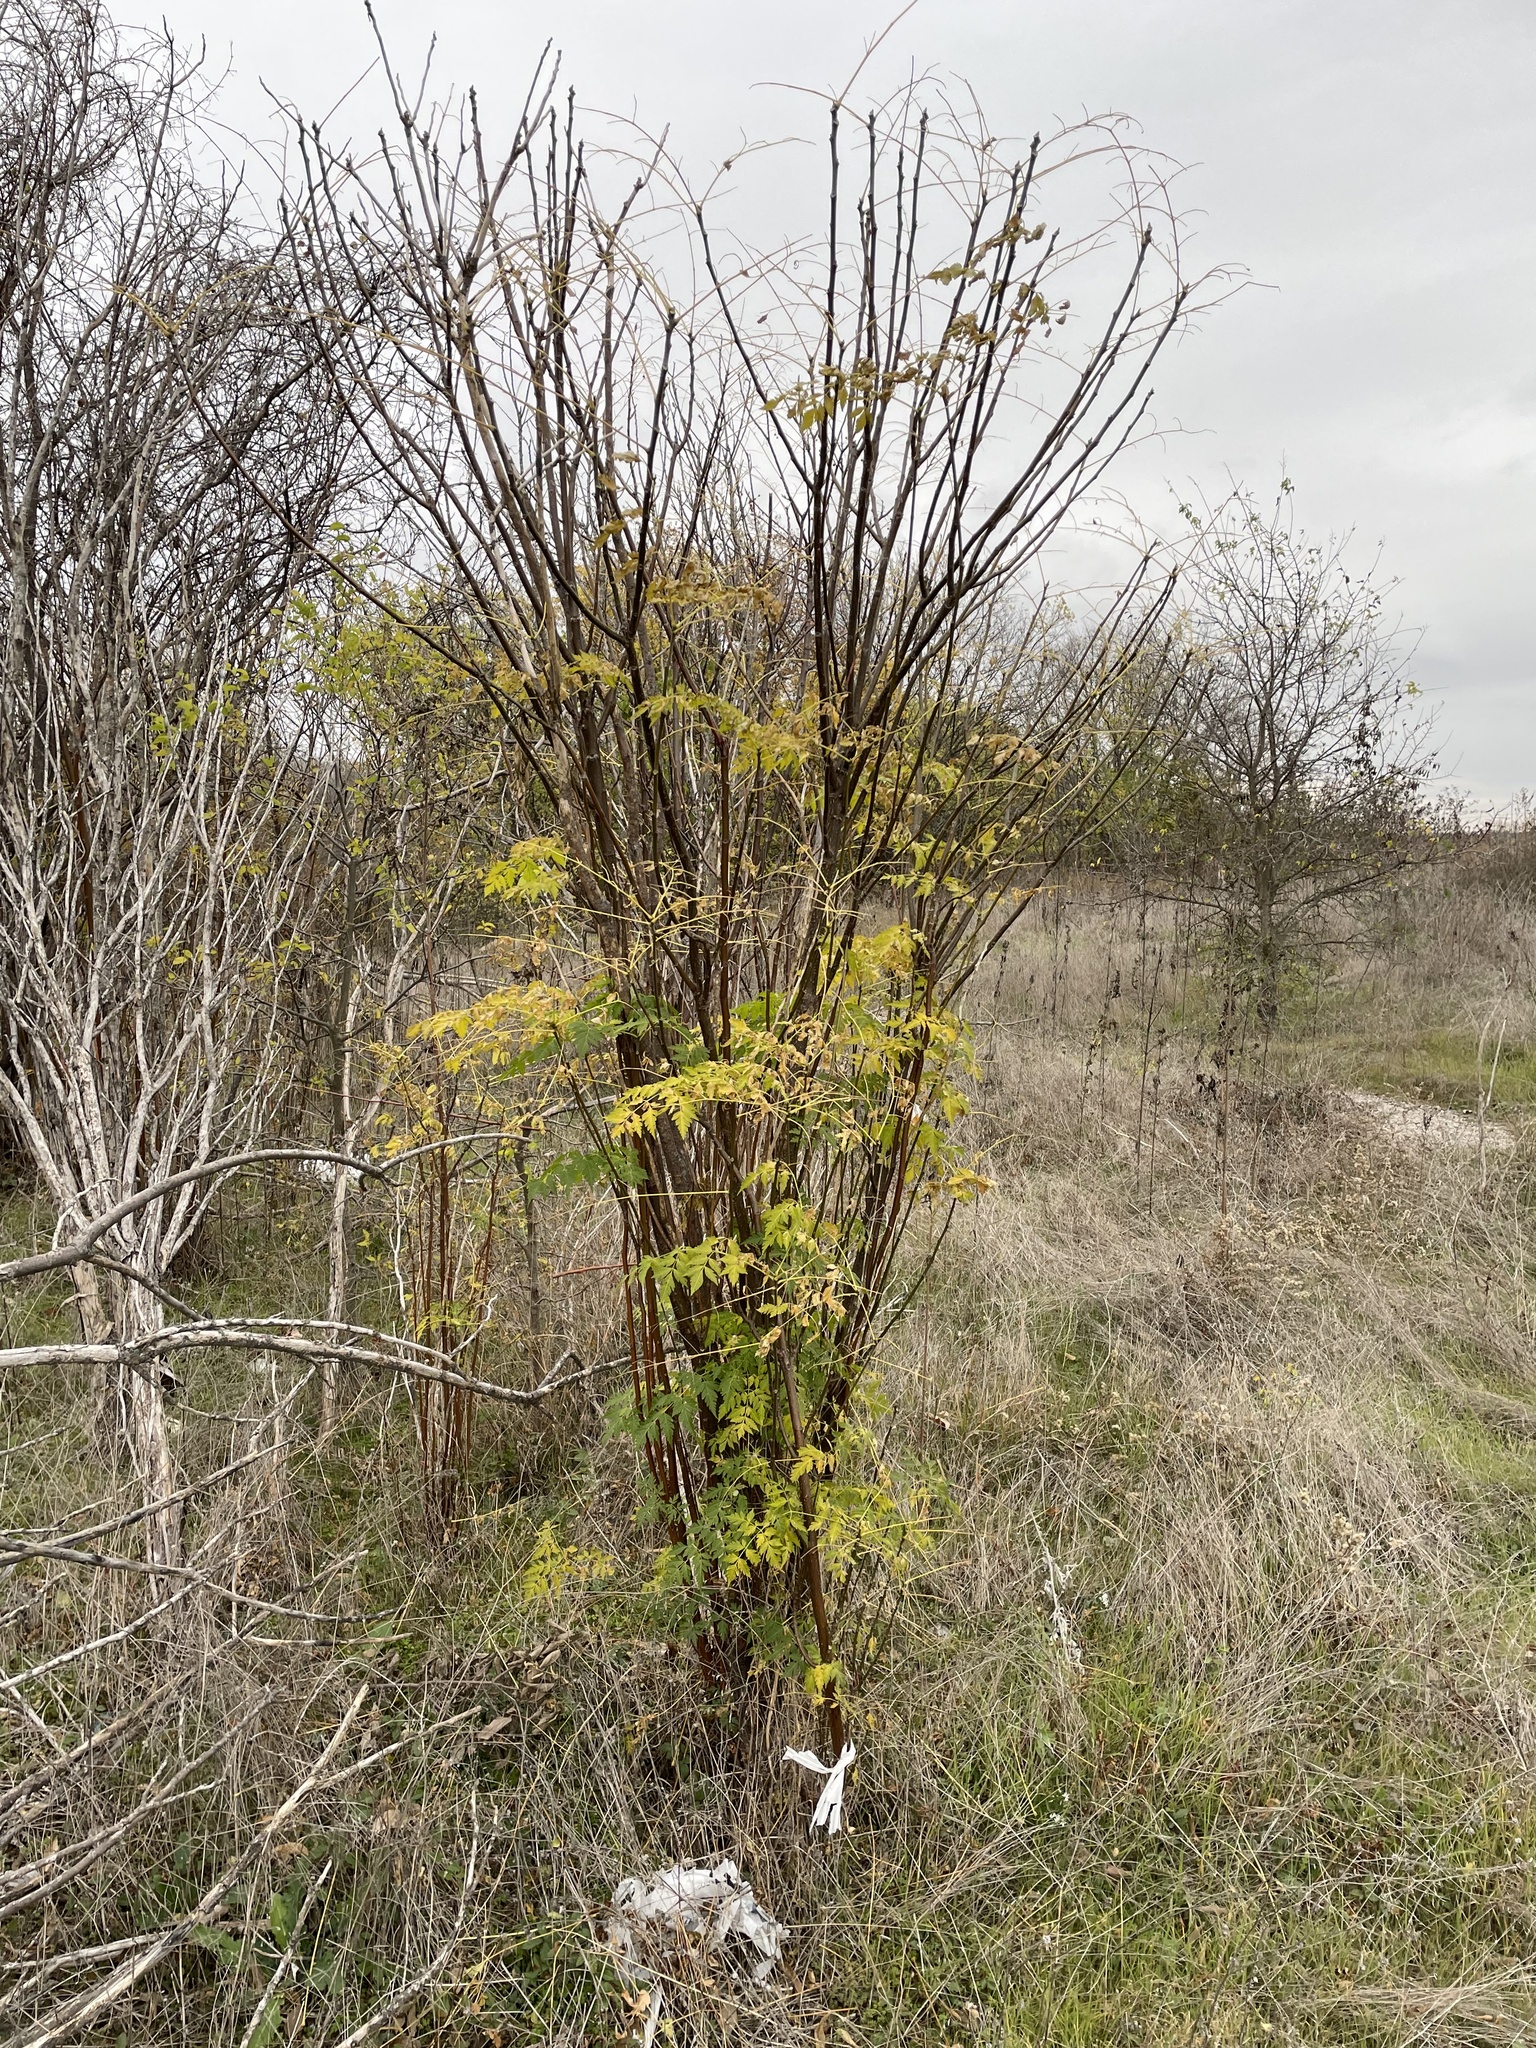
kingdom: Plantae
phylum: Tracheophyta
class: Magnoliopsida
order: Sapindales
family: Meliaceae
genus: Melia
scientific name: Melia azedarach
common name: Chinaberrytree
